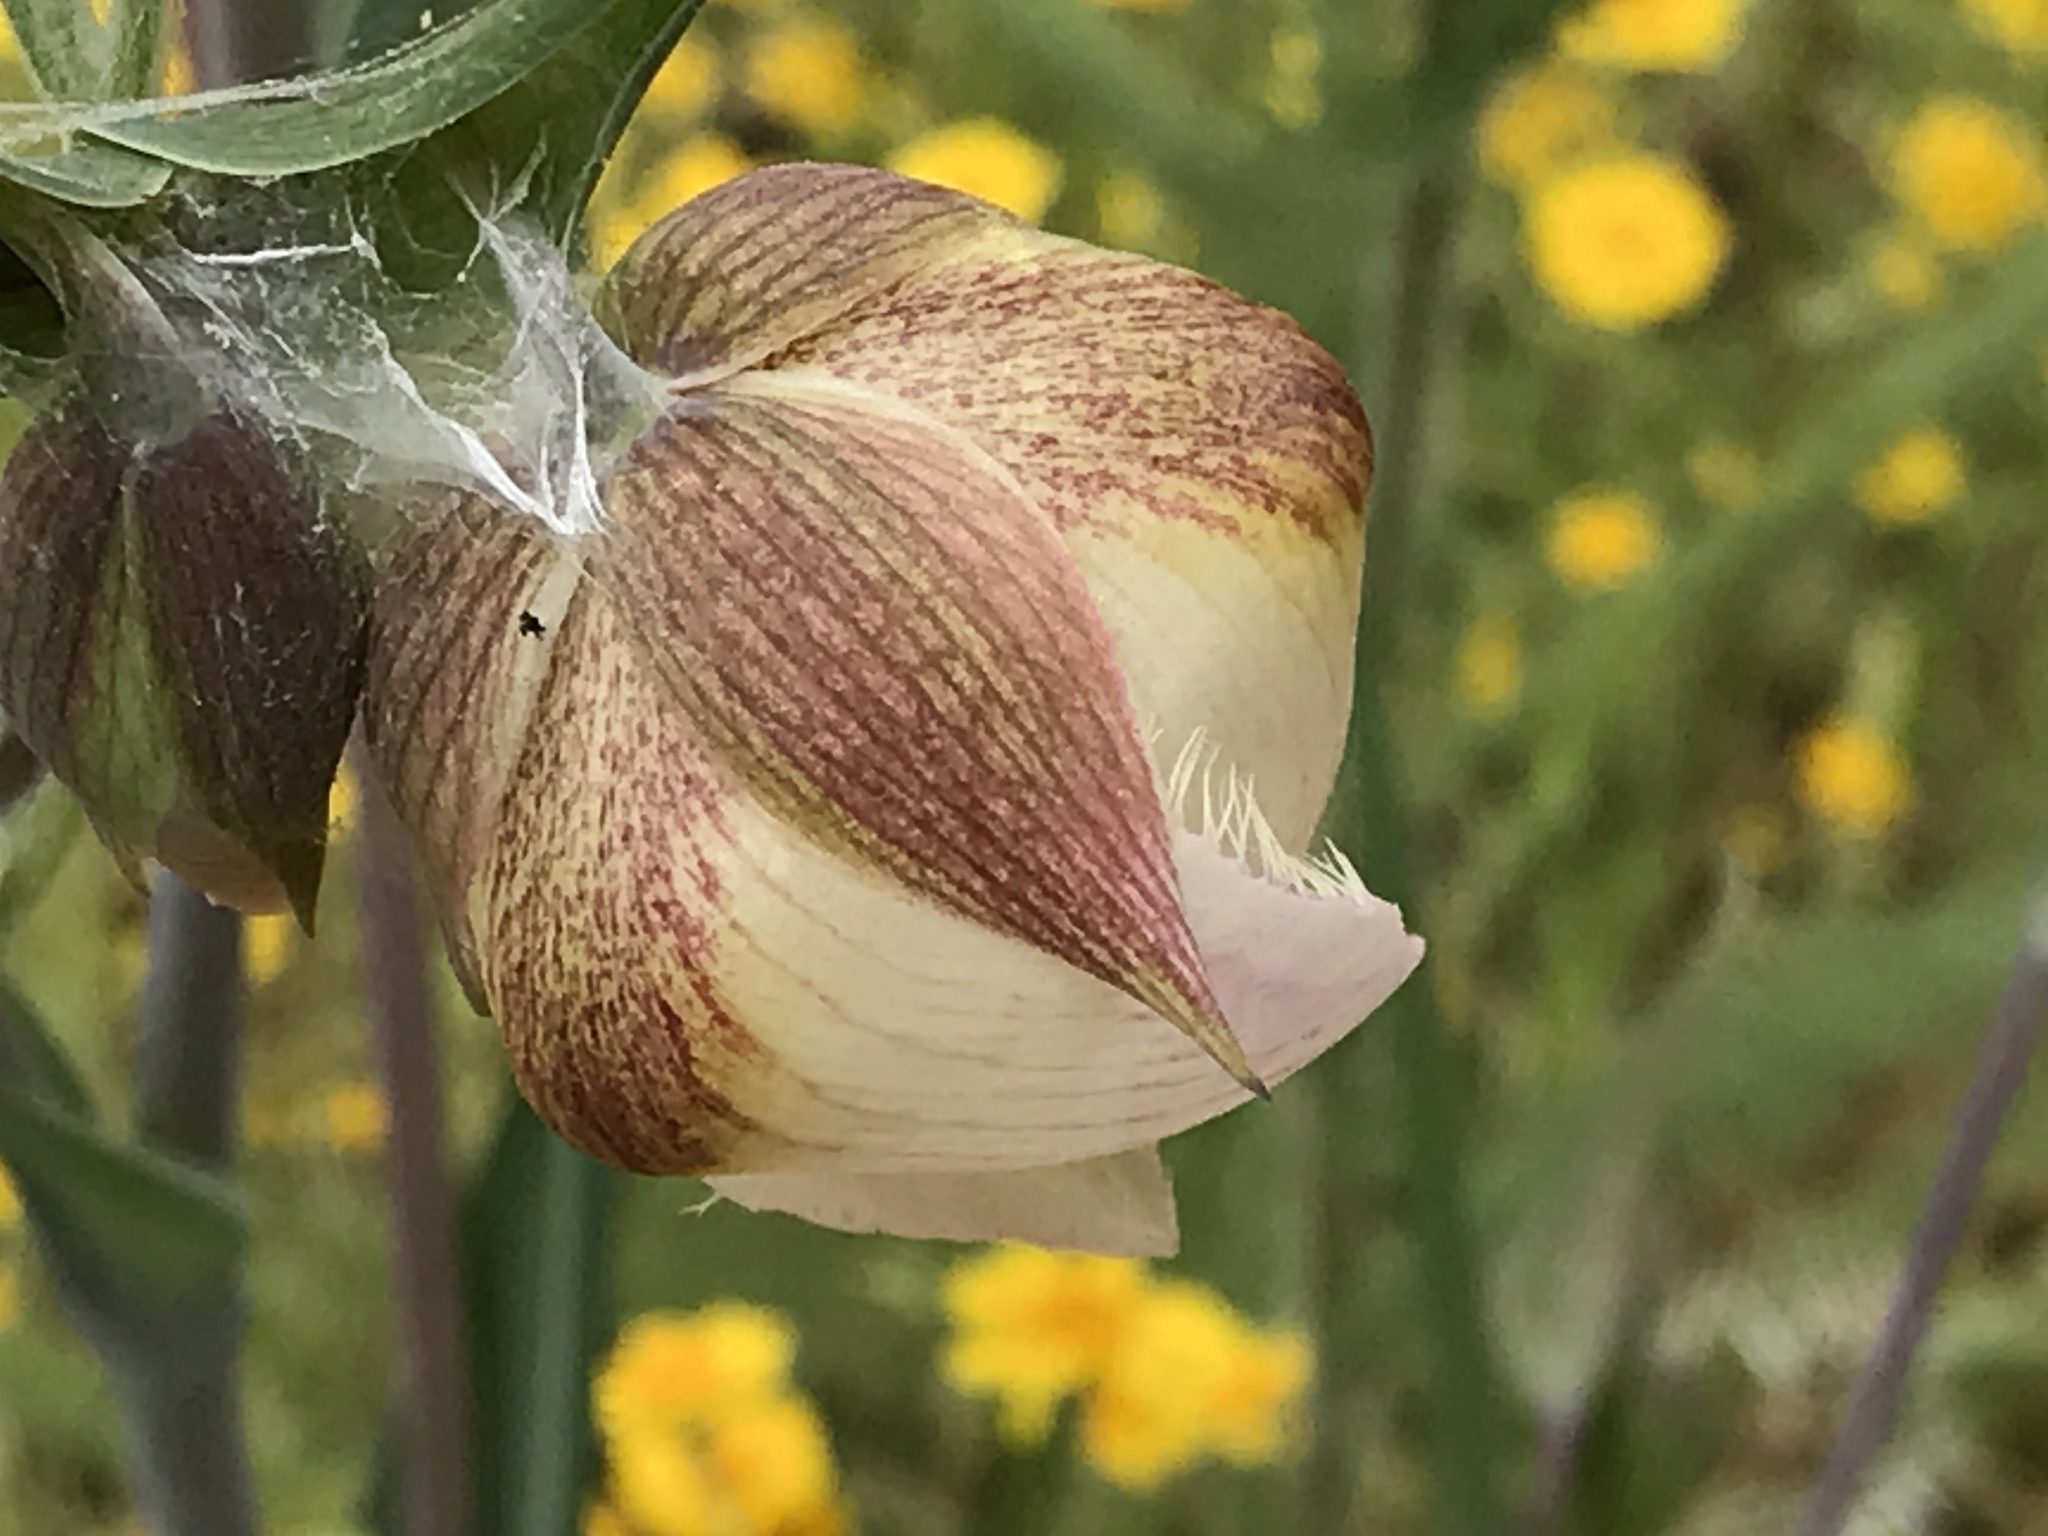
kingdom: Plantae
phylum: Tracheophyta
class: Liliopsida
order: Liliales
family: Liliaceae
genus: Calochortus
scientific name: Calochortus albus
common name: Fairy-lantern
